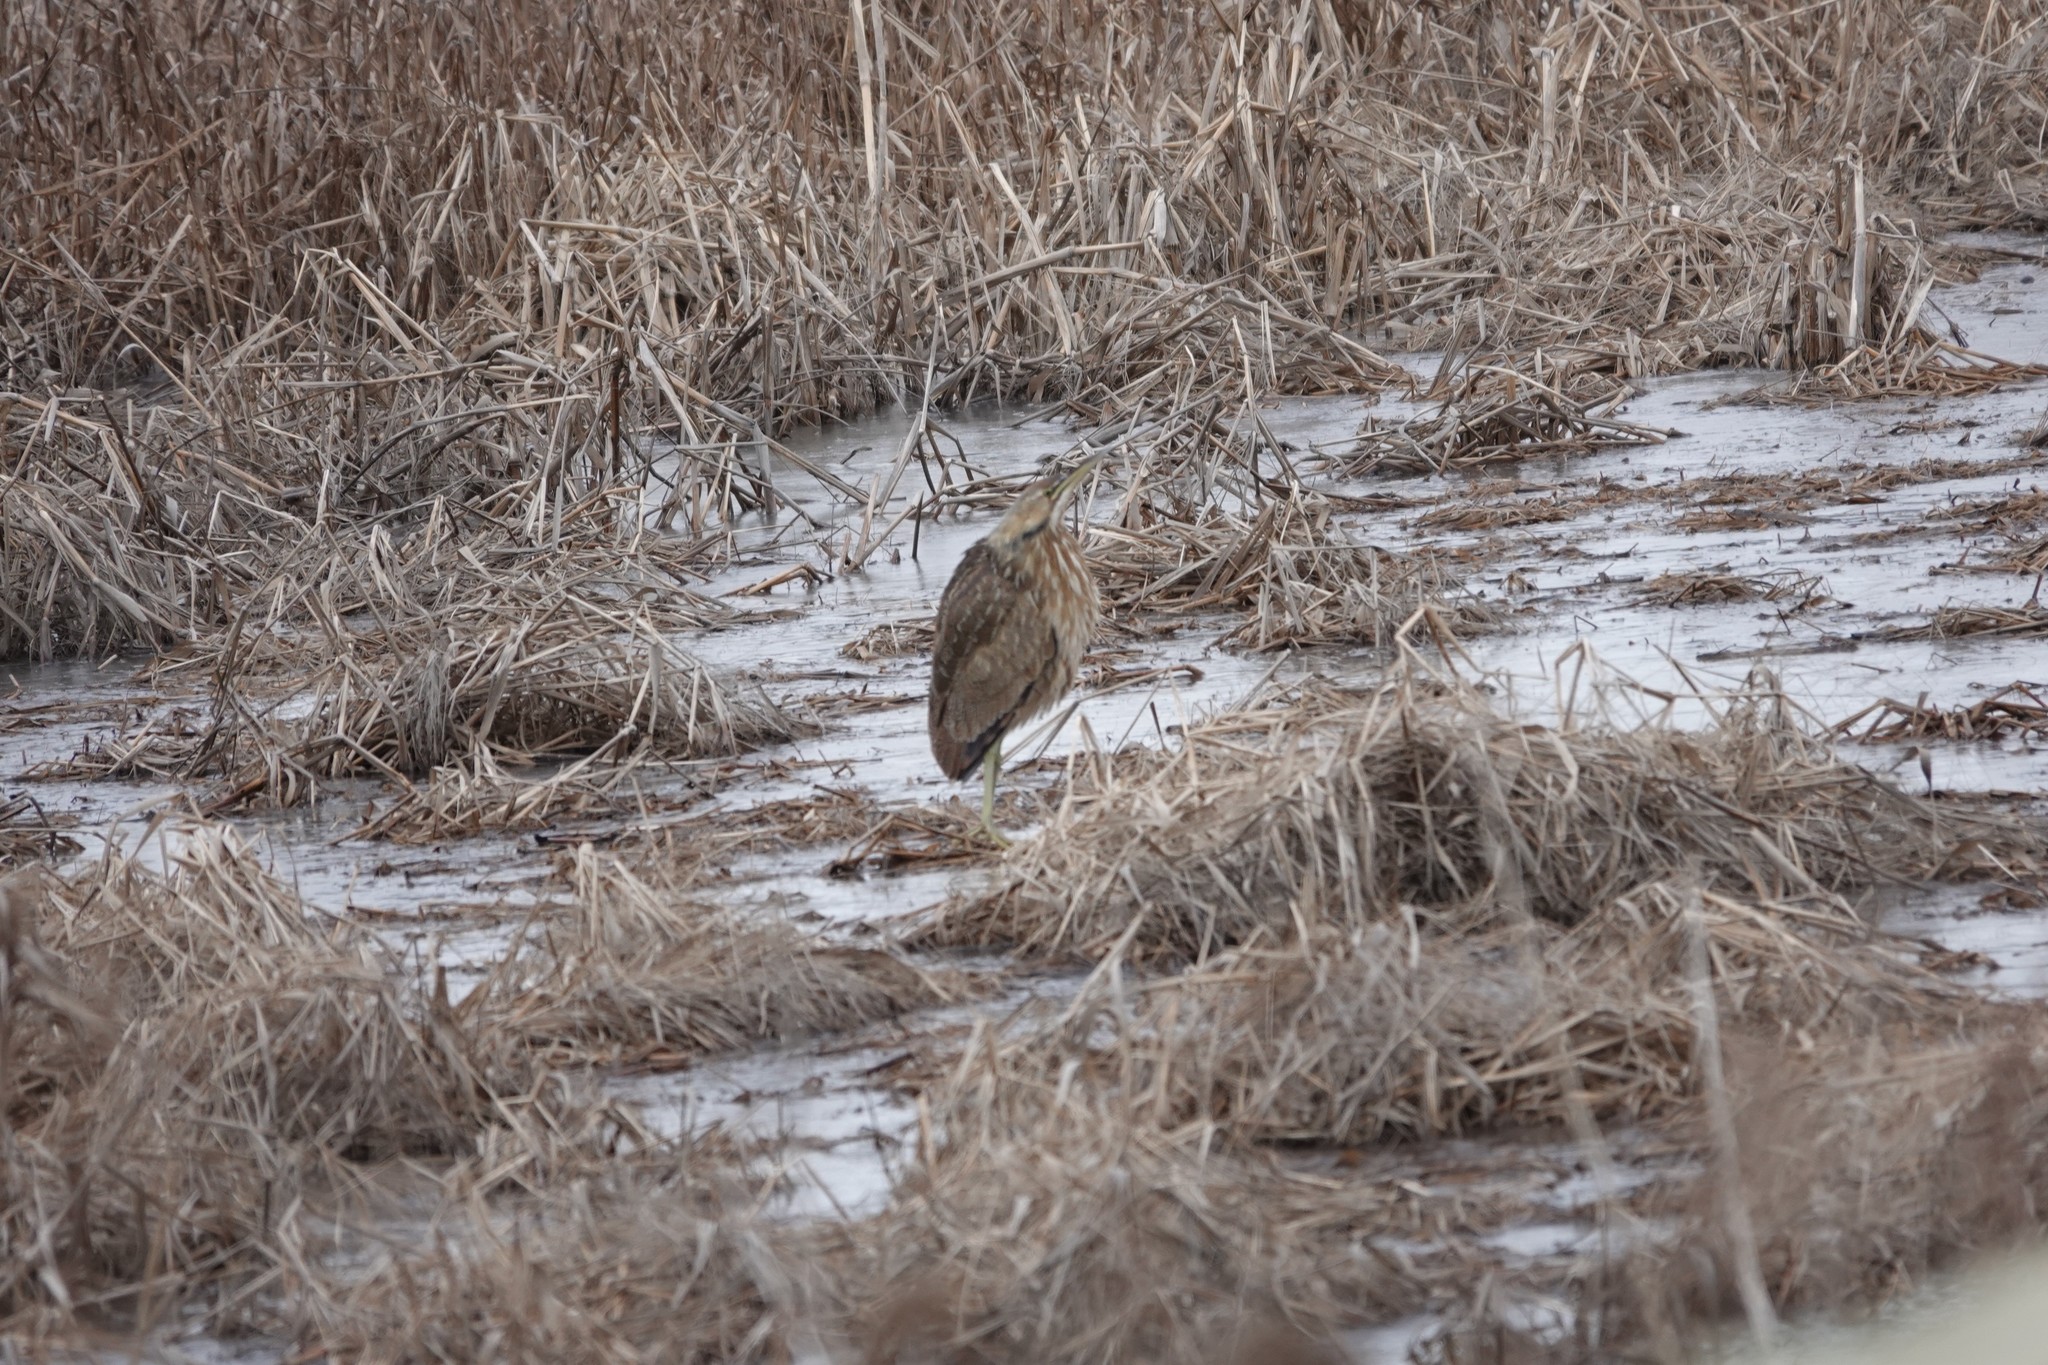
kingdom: Animalia
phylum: Chordata
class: Aves
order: Pelecaniformes
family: Ardeidae
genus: Botaurus
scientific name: Botaurus lentiginosus
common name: American bittern
